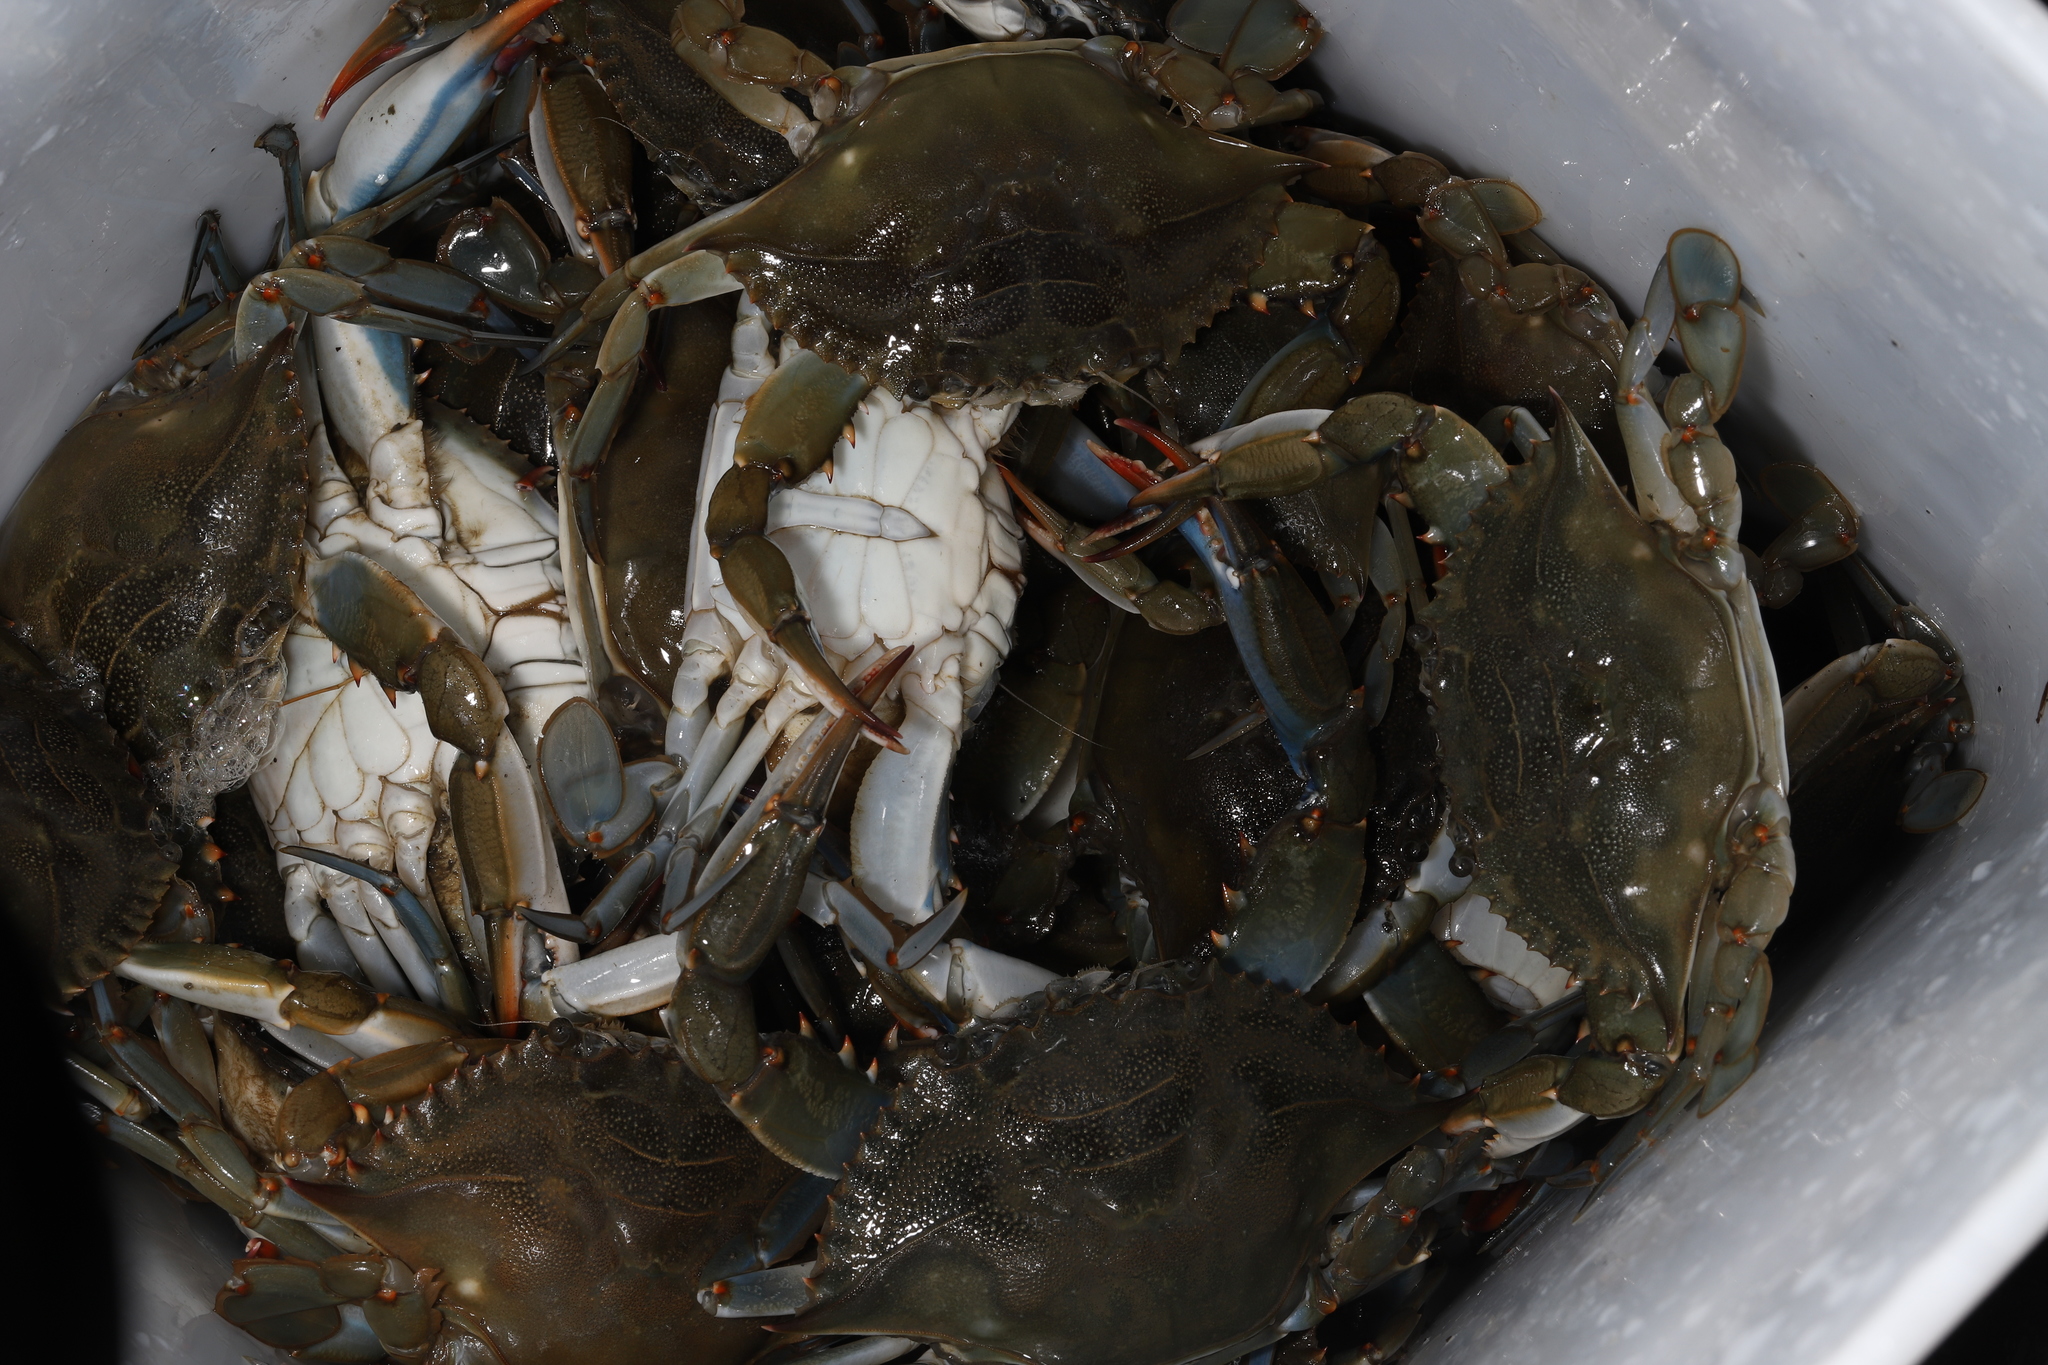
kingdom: Animalia
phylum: Arthropoda
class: Malacostraca
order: Decapoda
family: Portunidae
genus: Callinectes
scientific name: Callinectes sapidus
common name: Blue crab
